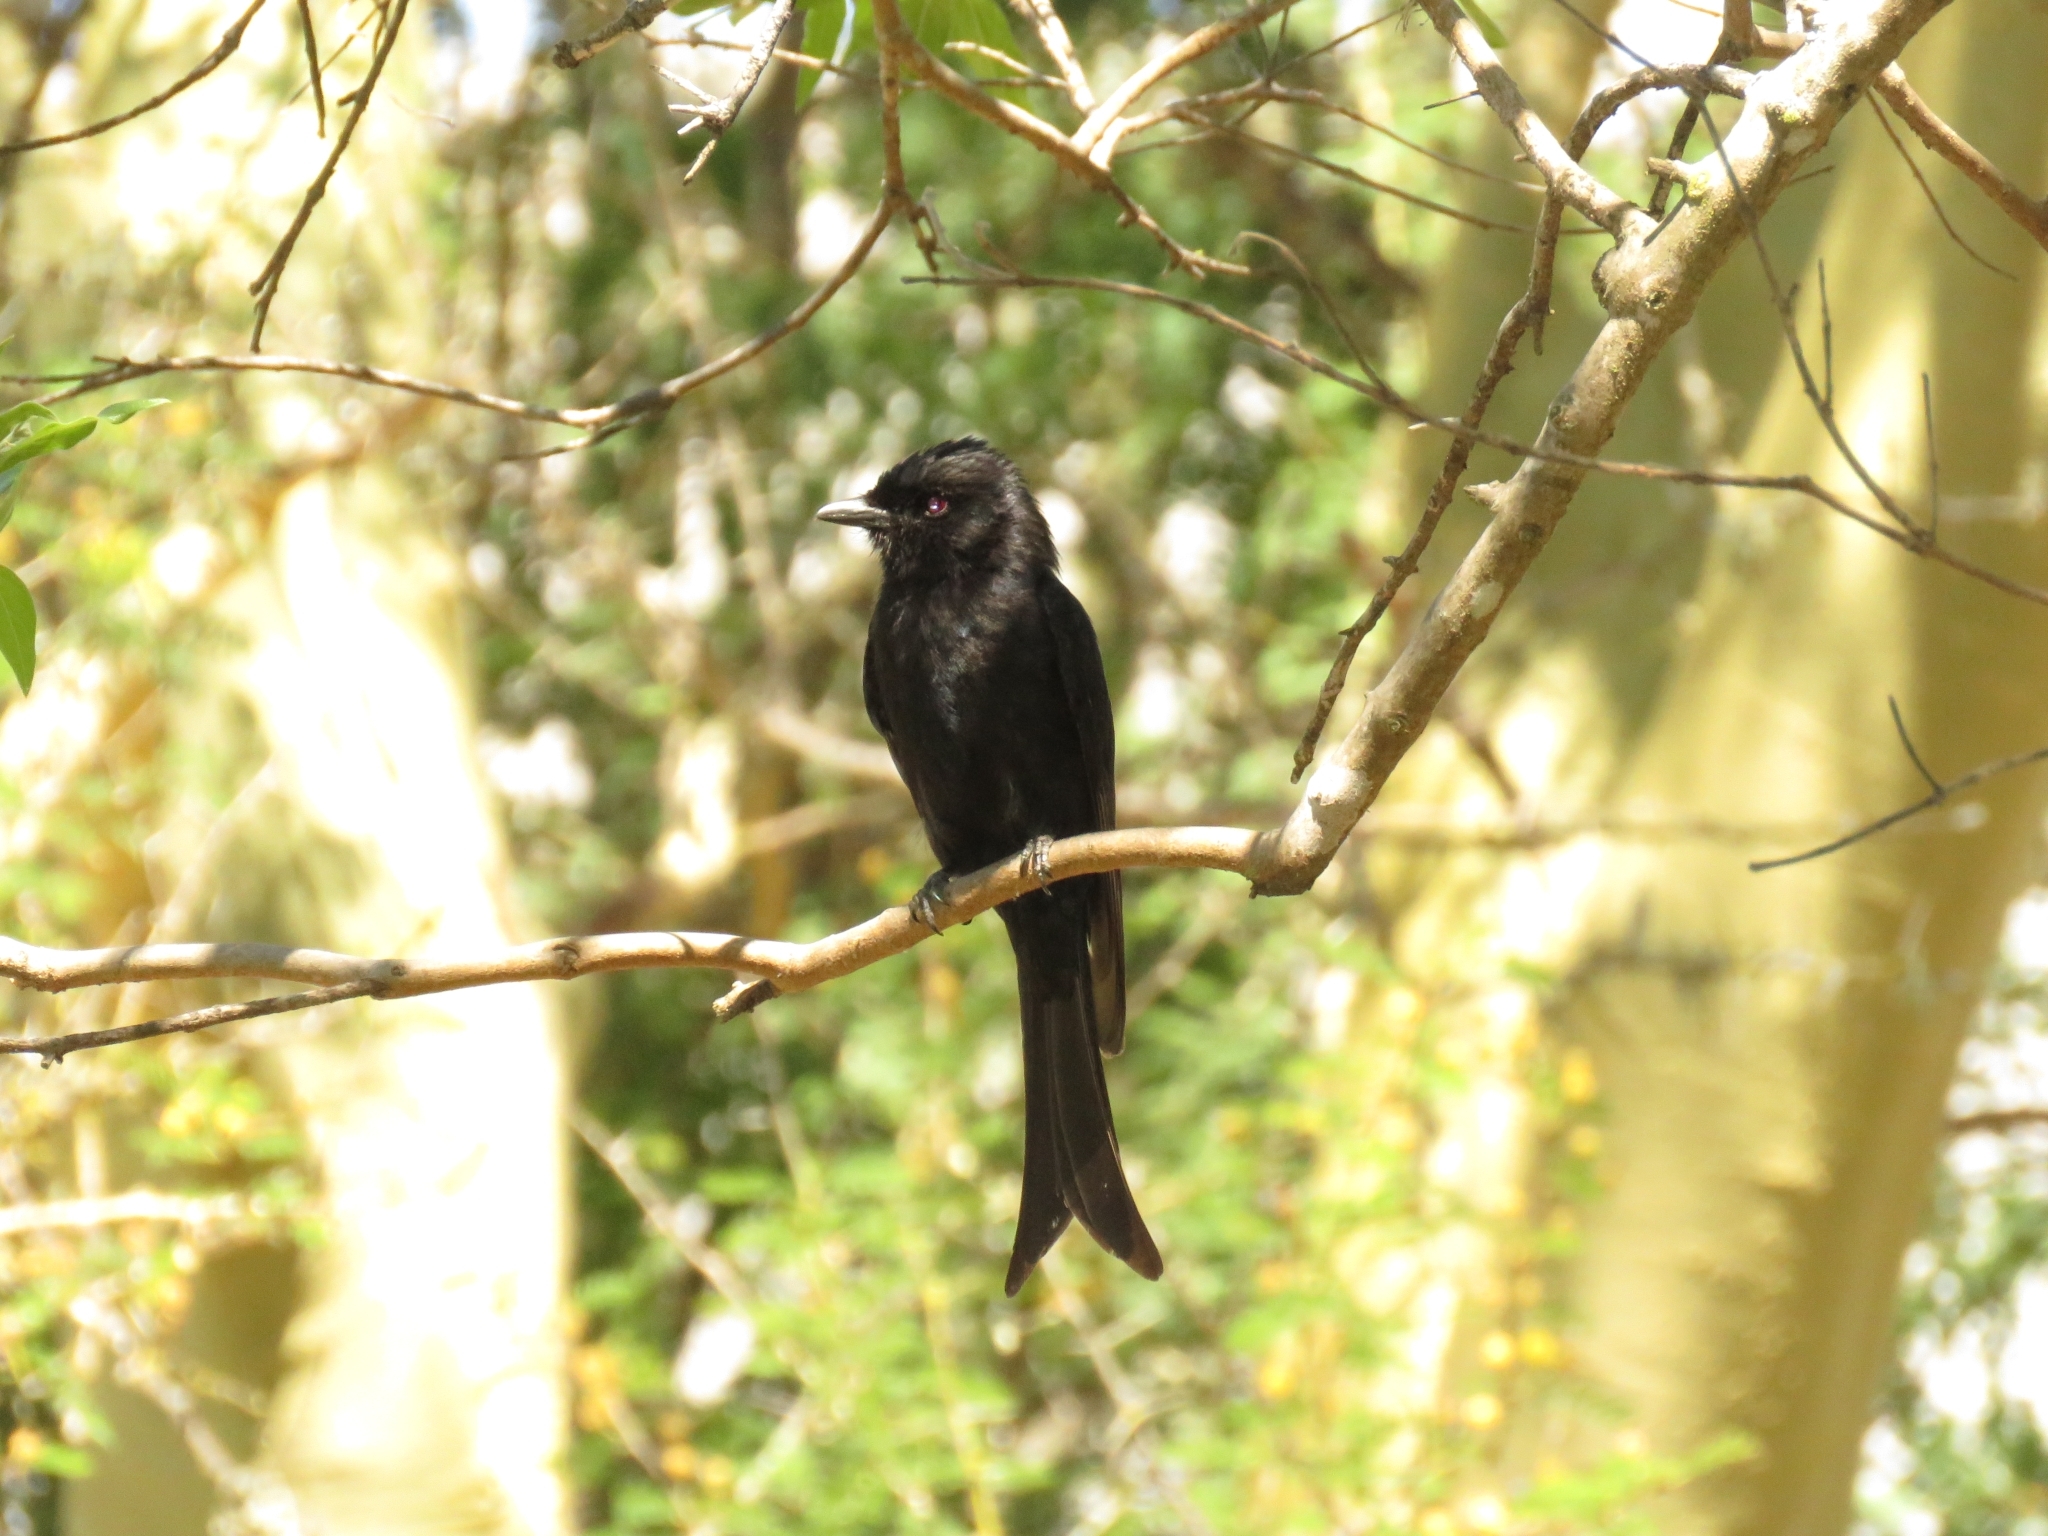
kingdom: Animalia
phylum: Chordata
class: Aves
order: Passeriformes
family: Dicruridae
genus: Dicrurus
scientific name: Dicrurus adsimilis
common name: Fork-tailed drongo
